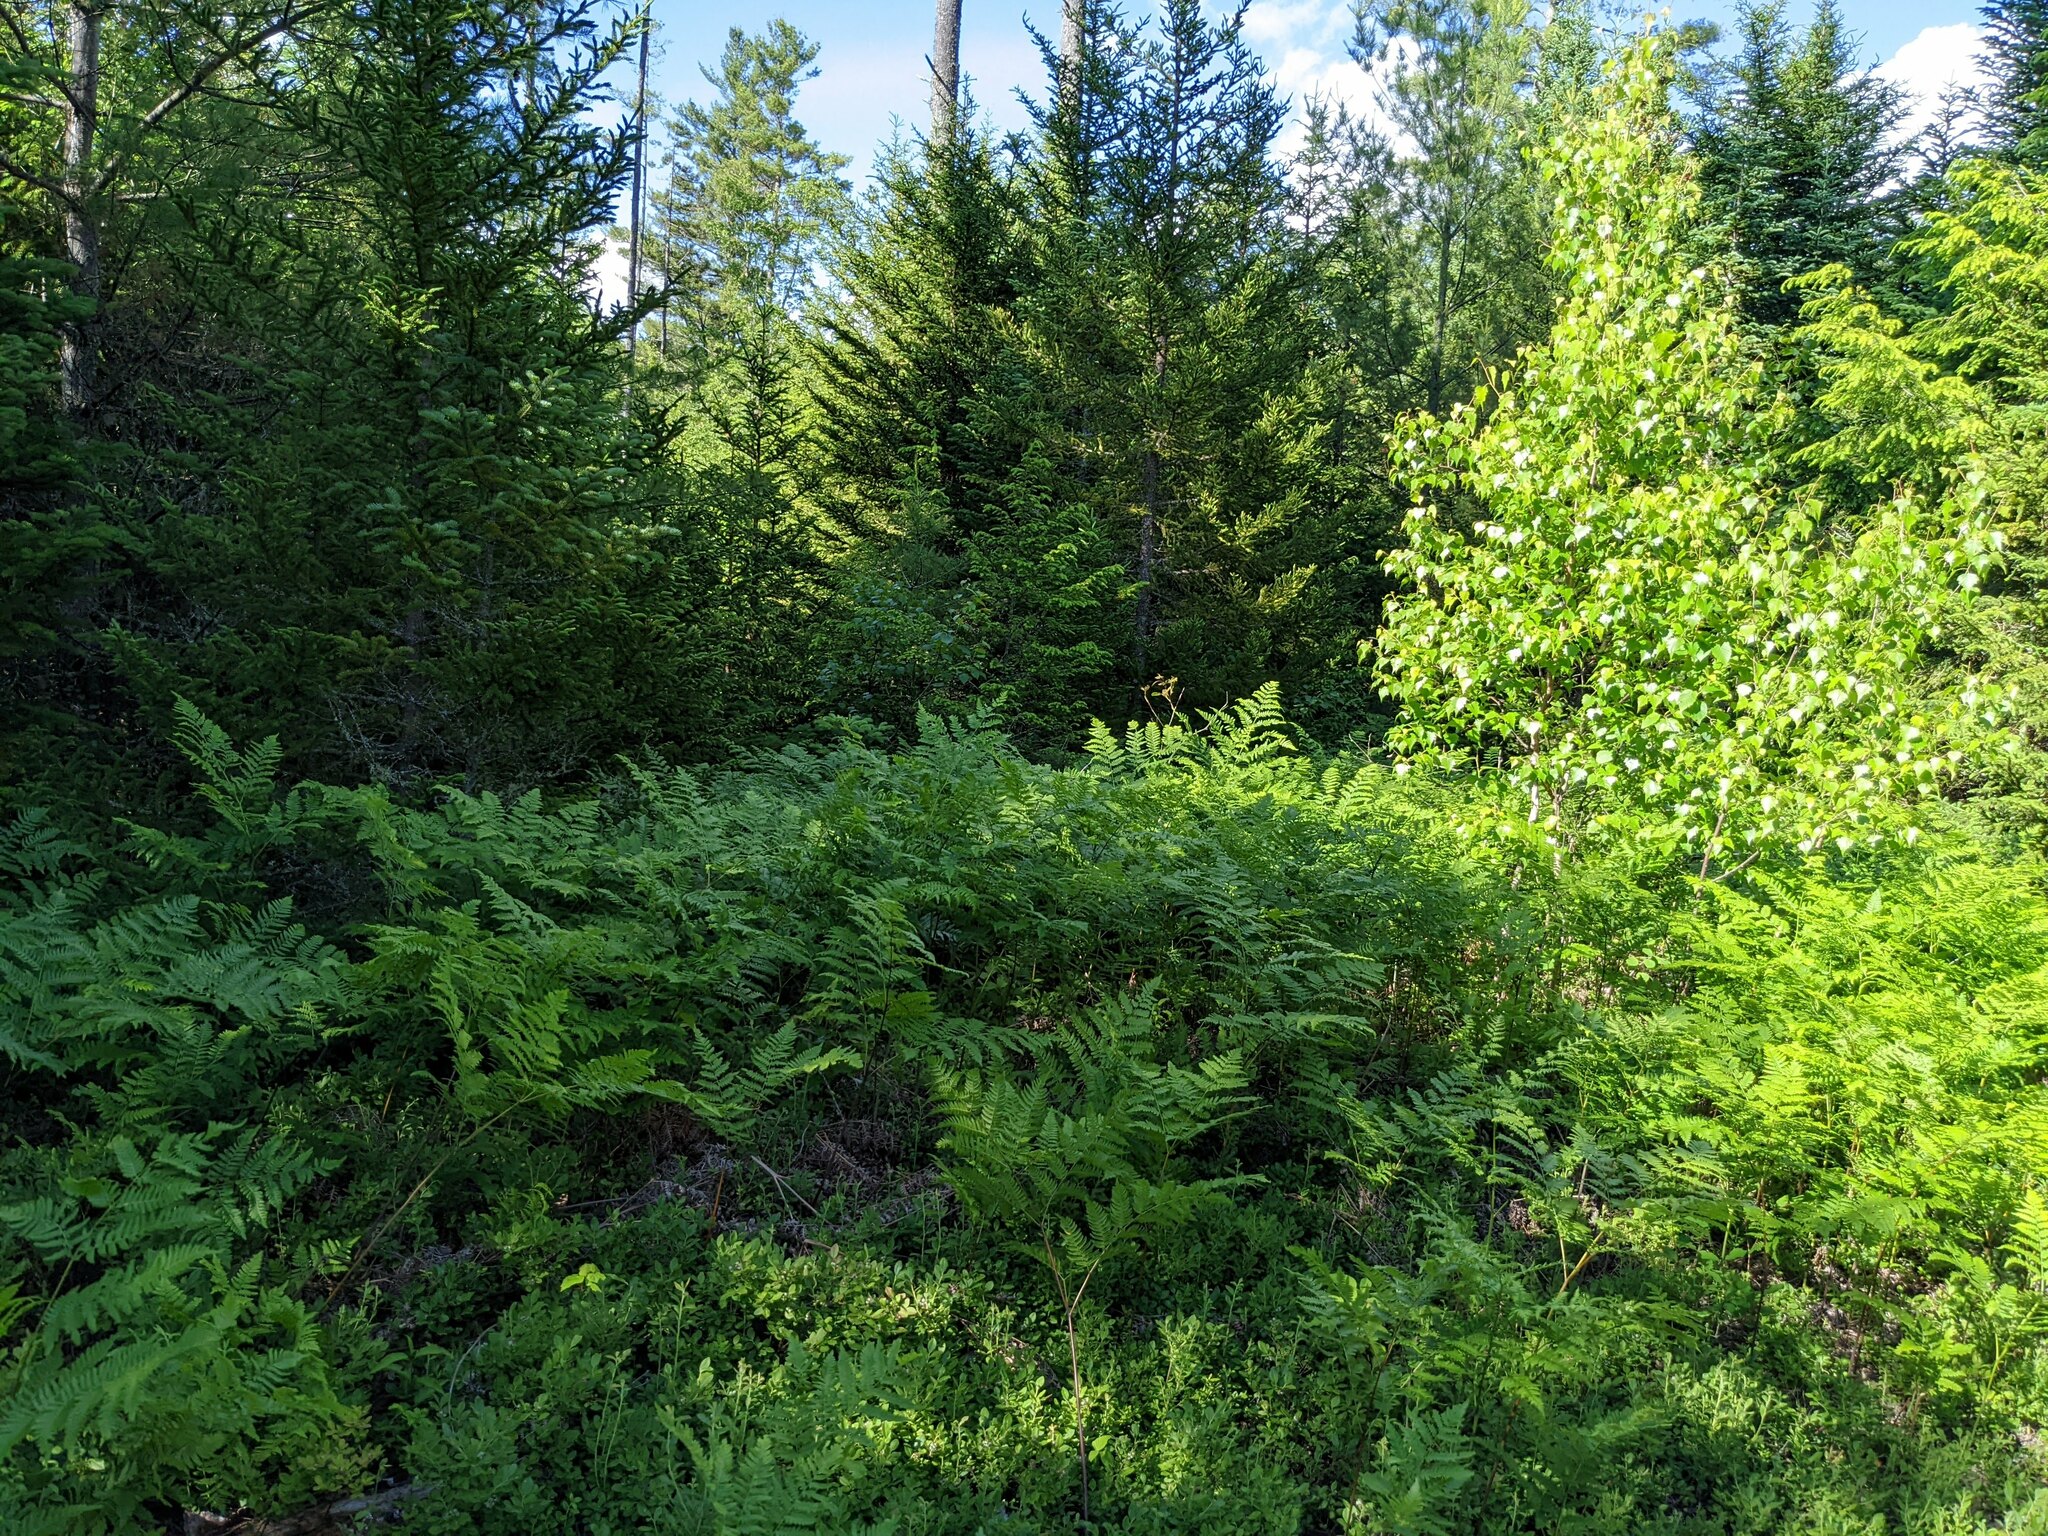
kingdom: Plantae
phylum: Tracheophyta
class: Polypodiopsida
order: Polypodiales
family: Dennstaedtiaceae
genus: Pteridium
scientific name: Pteridium aquilinum
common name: Bracken
